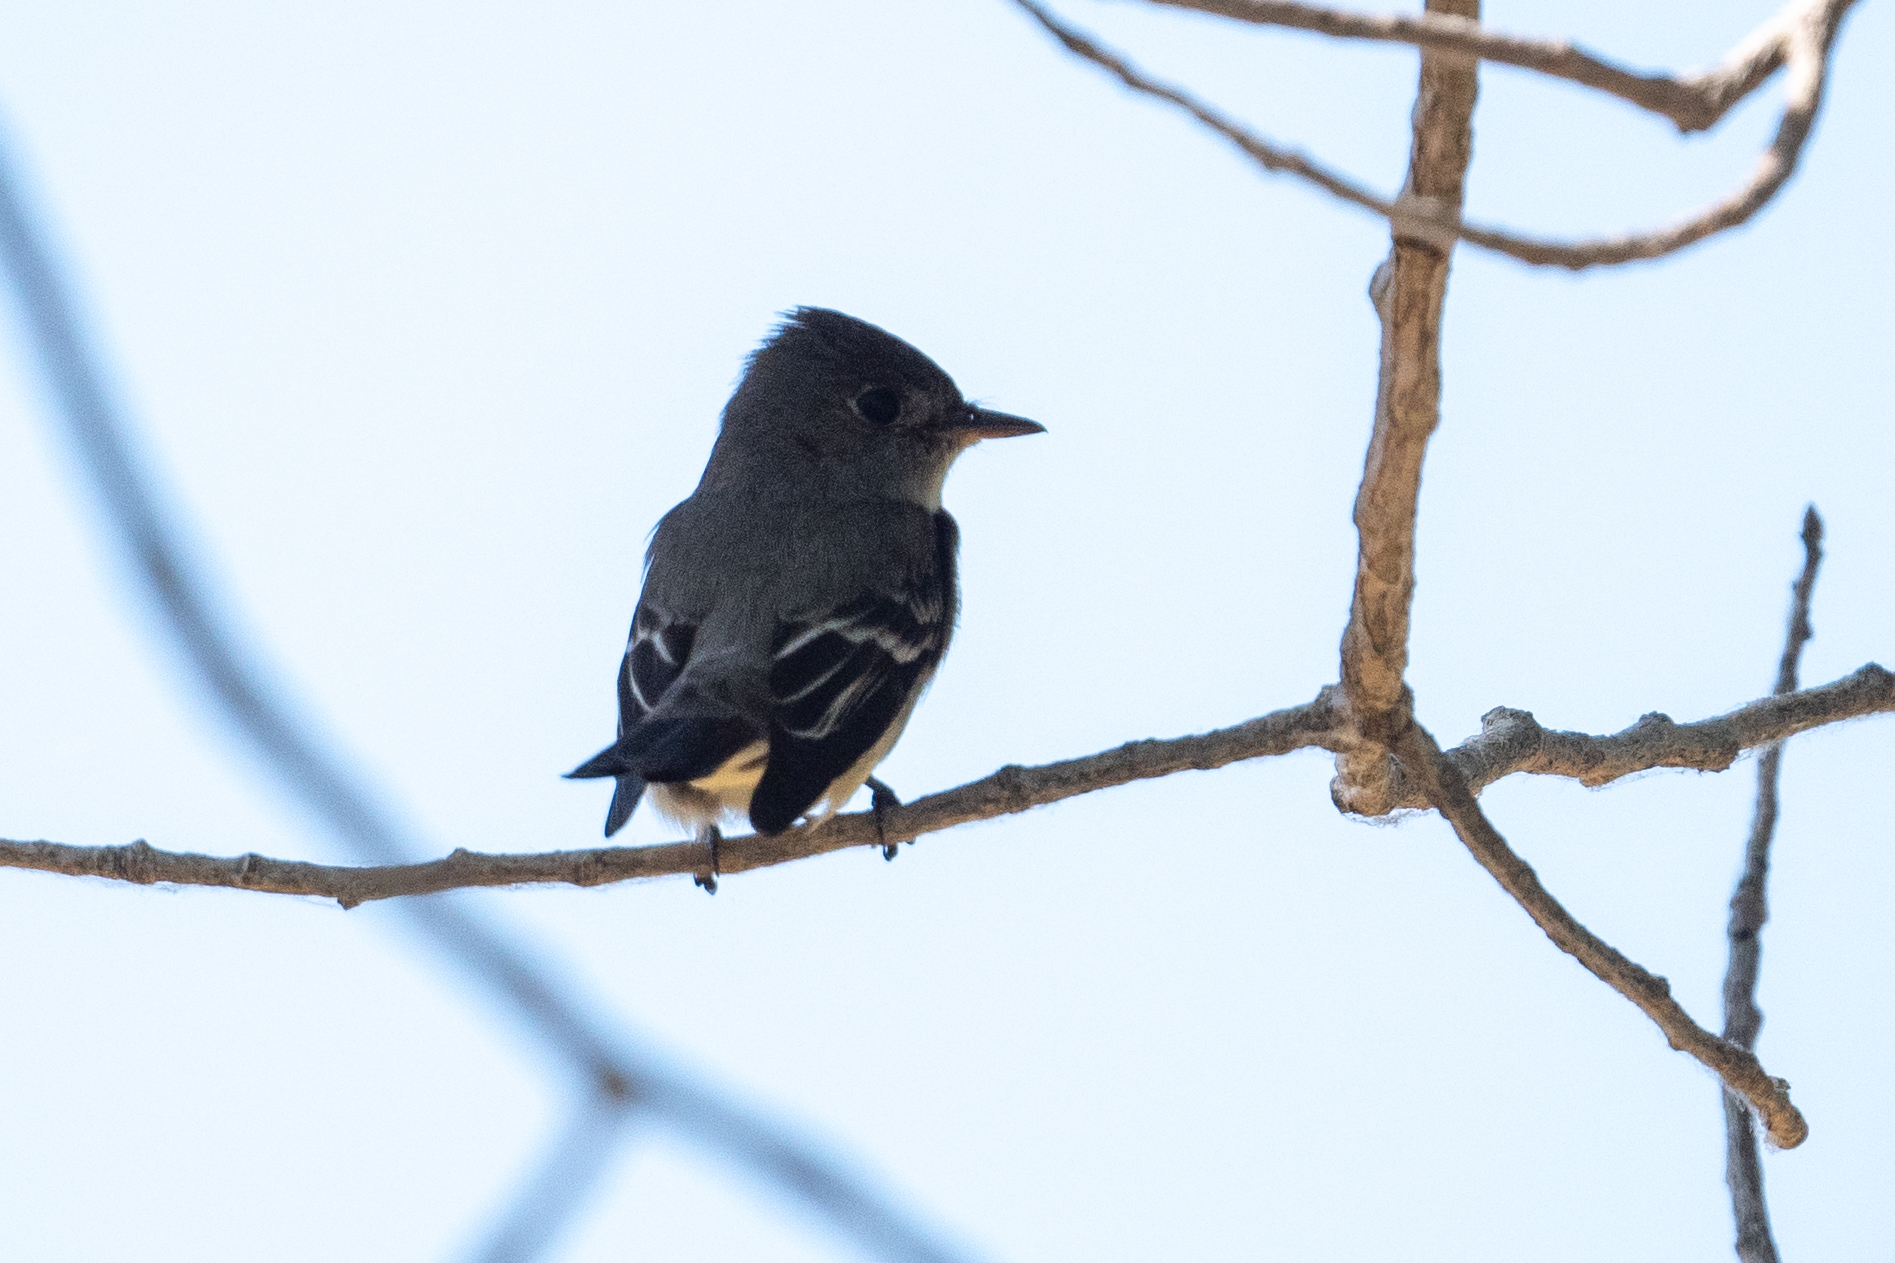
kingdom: Animalia
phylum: Chordata
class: Aves
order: Passeriformes
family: Tyrannidae
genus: Contopus
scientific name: Contopus sordidulus
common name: Western wood-pewee
